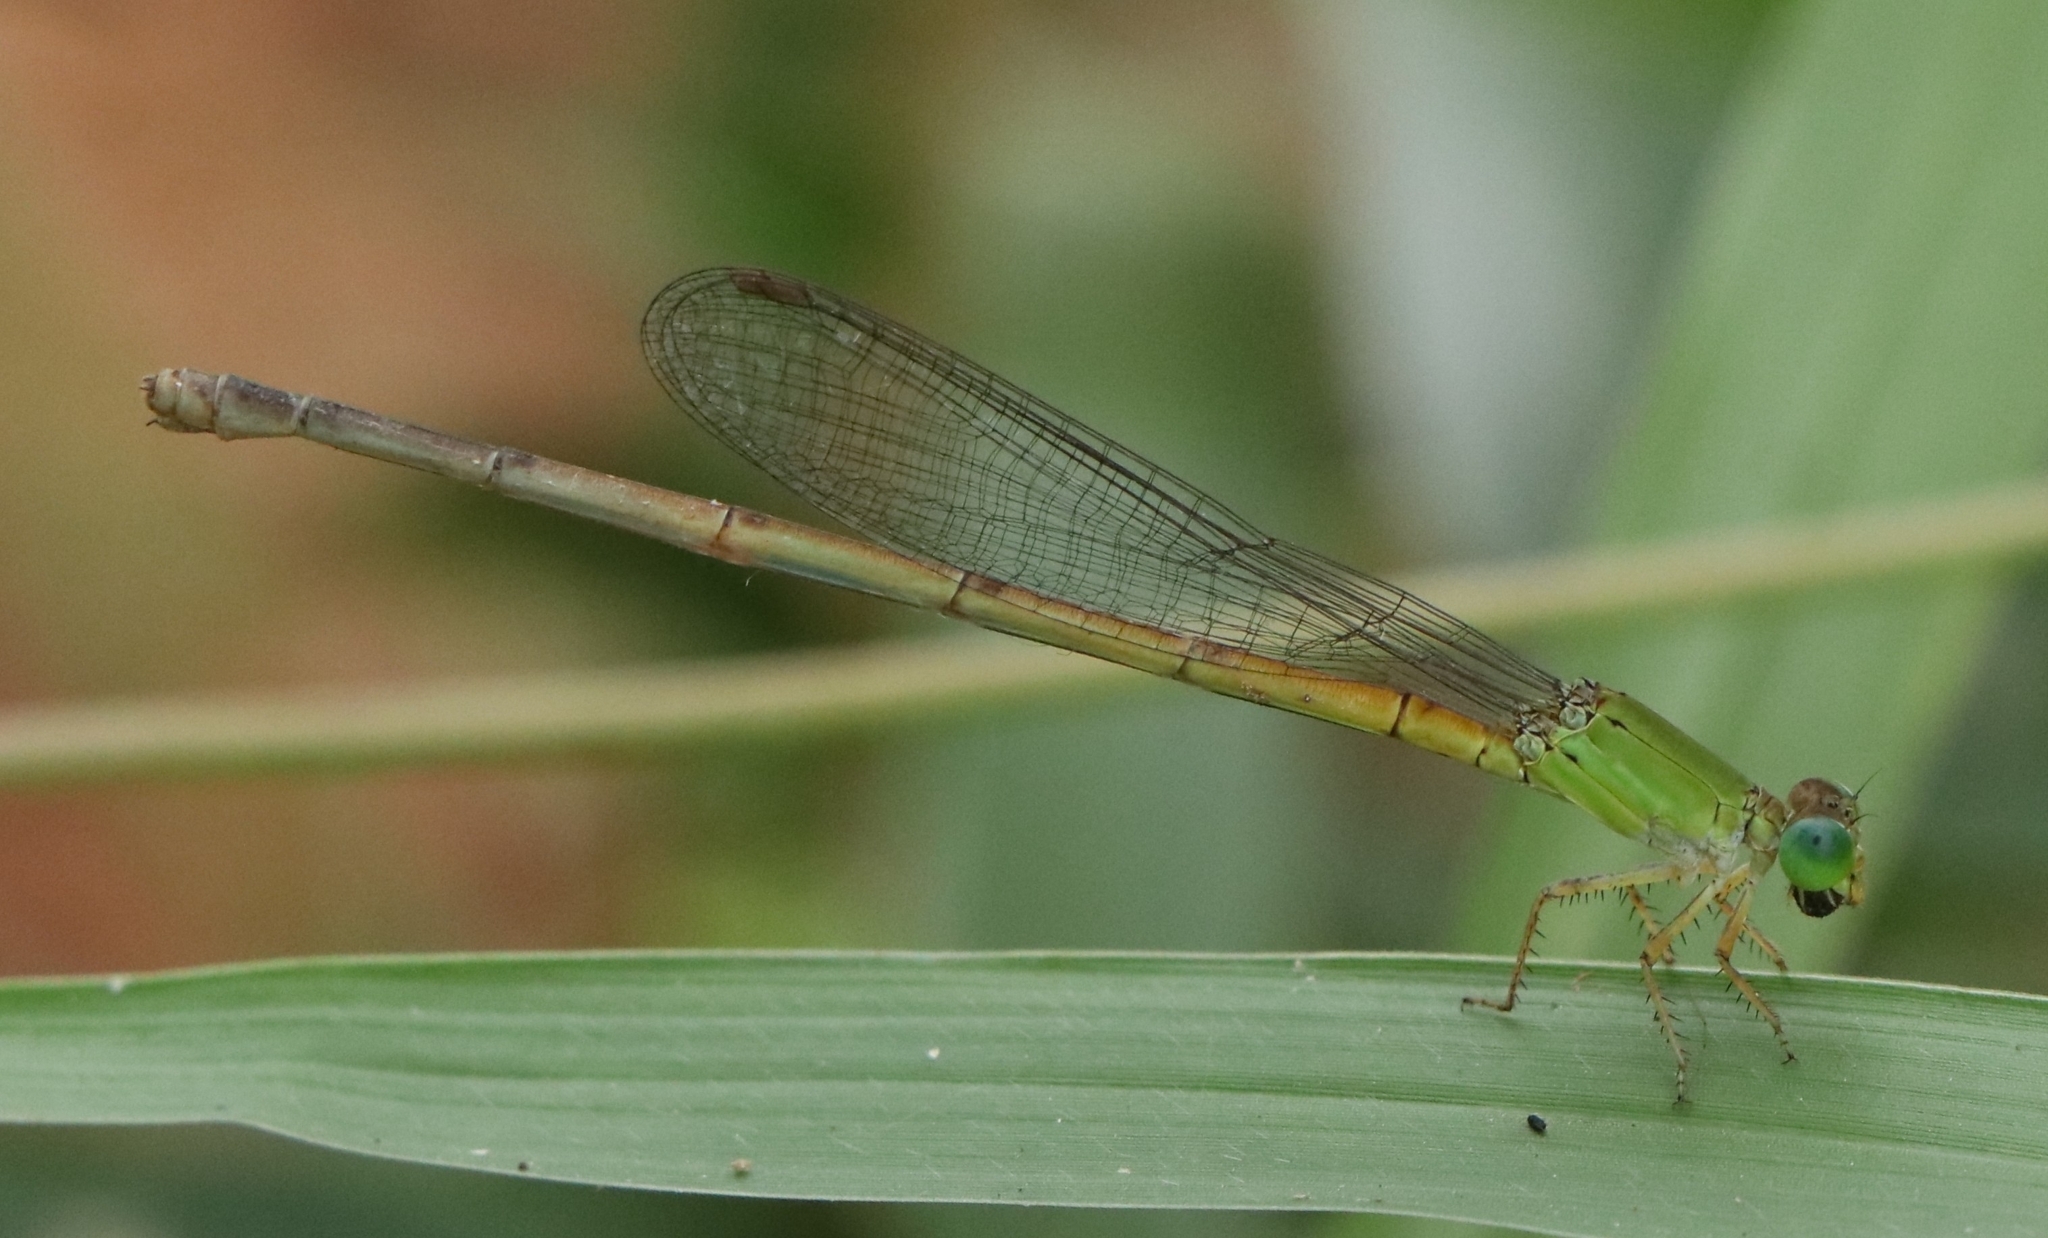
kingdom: Animalia
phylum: Arthropoda
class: Insecta
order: Odonata
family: Coenagrionidae
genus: Ceriagrion
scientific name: Ceriagrion coromandelianum
